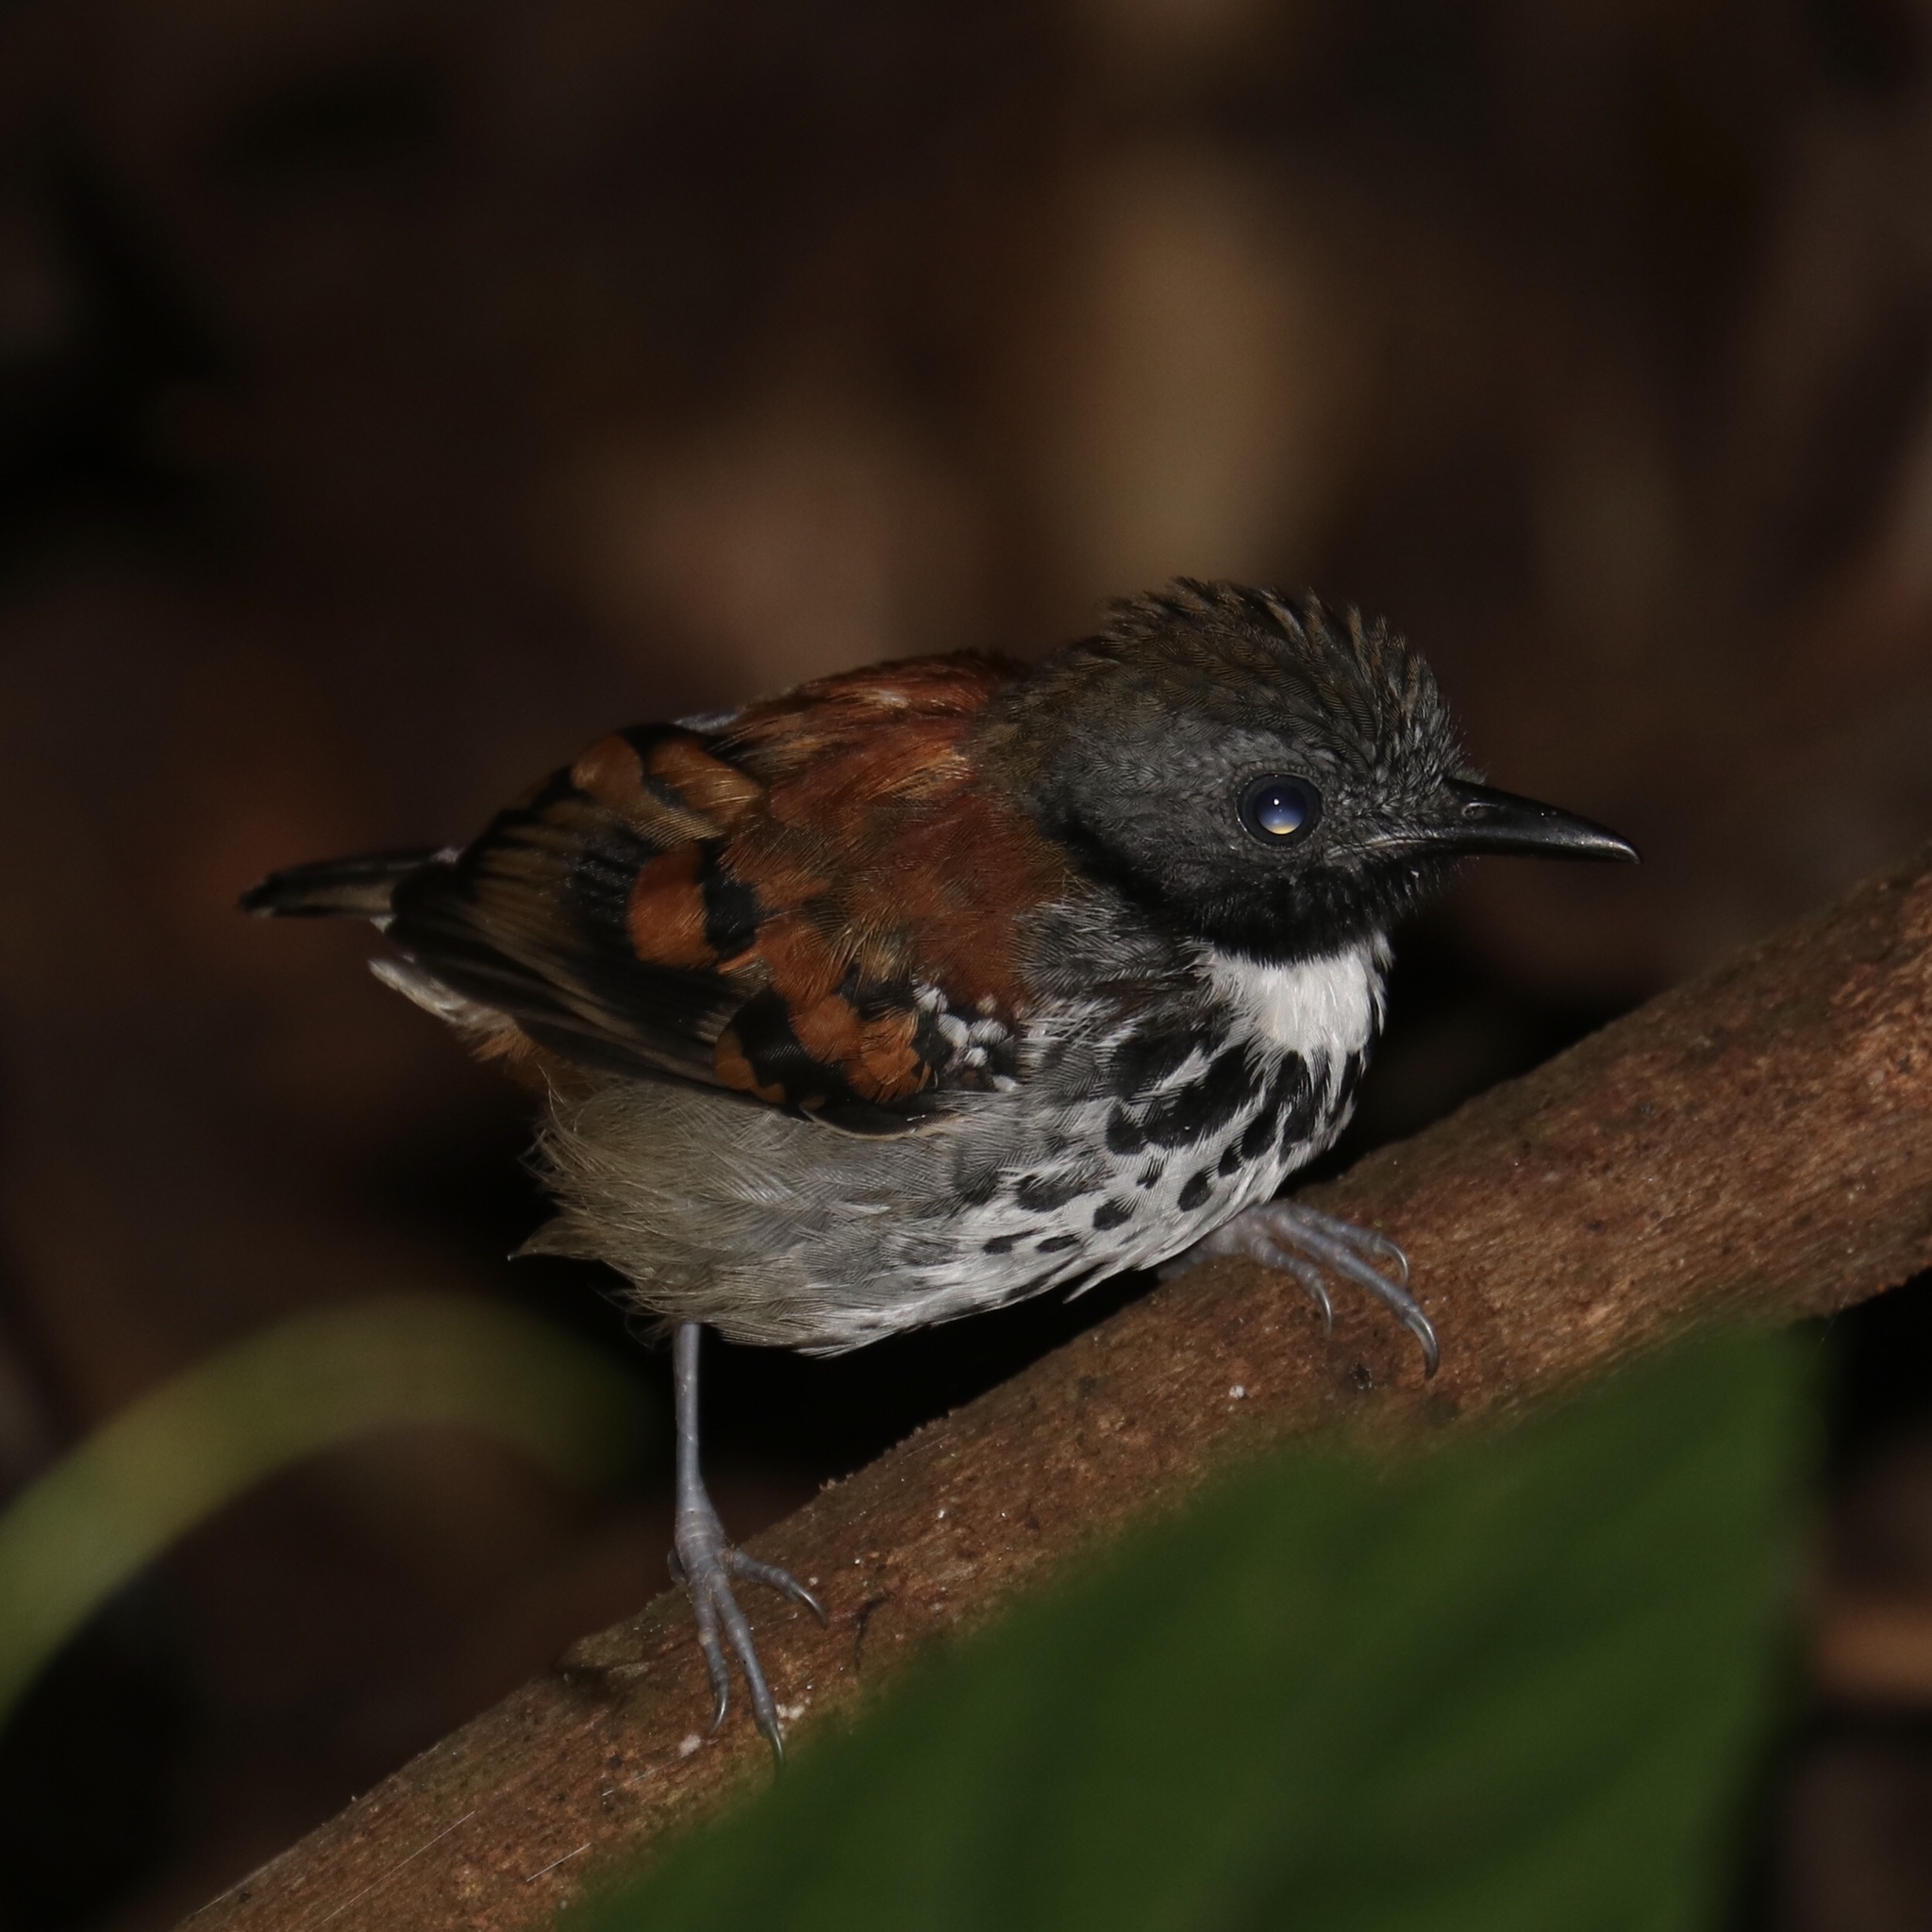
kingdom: Animalia
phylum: Chordata
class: Aves
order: Passeriformes
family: Thamnophilidae
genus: Hylophylax
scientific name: Hylophylax naevioides
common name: Spotted antbird
